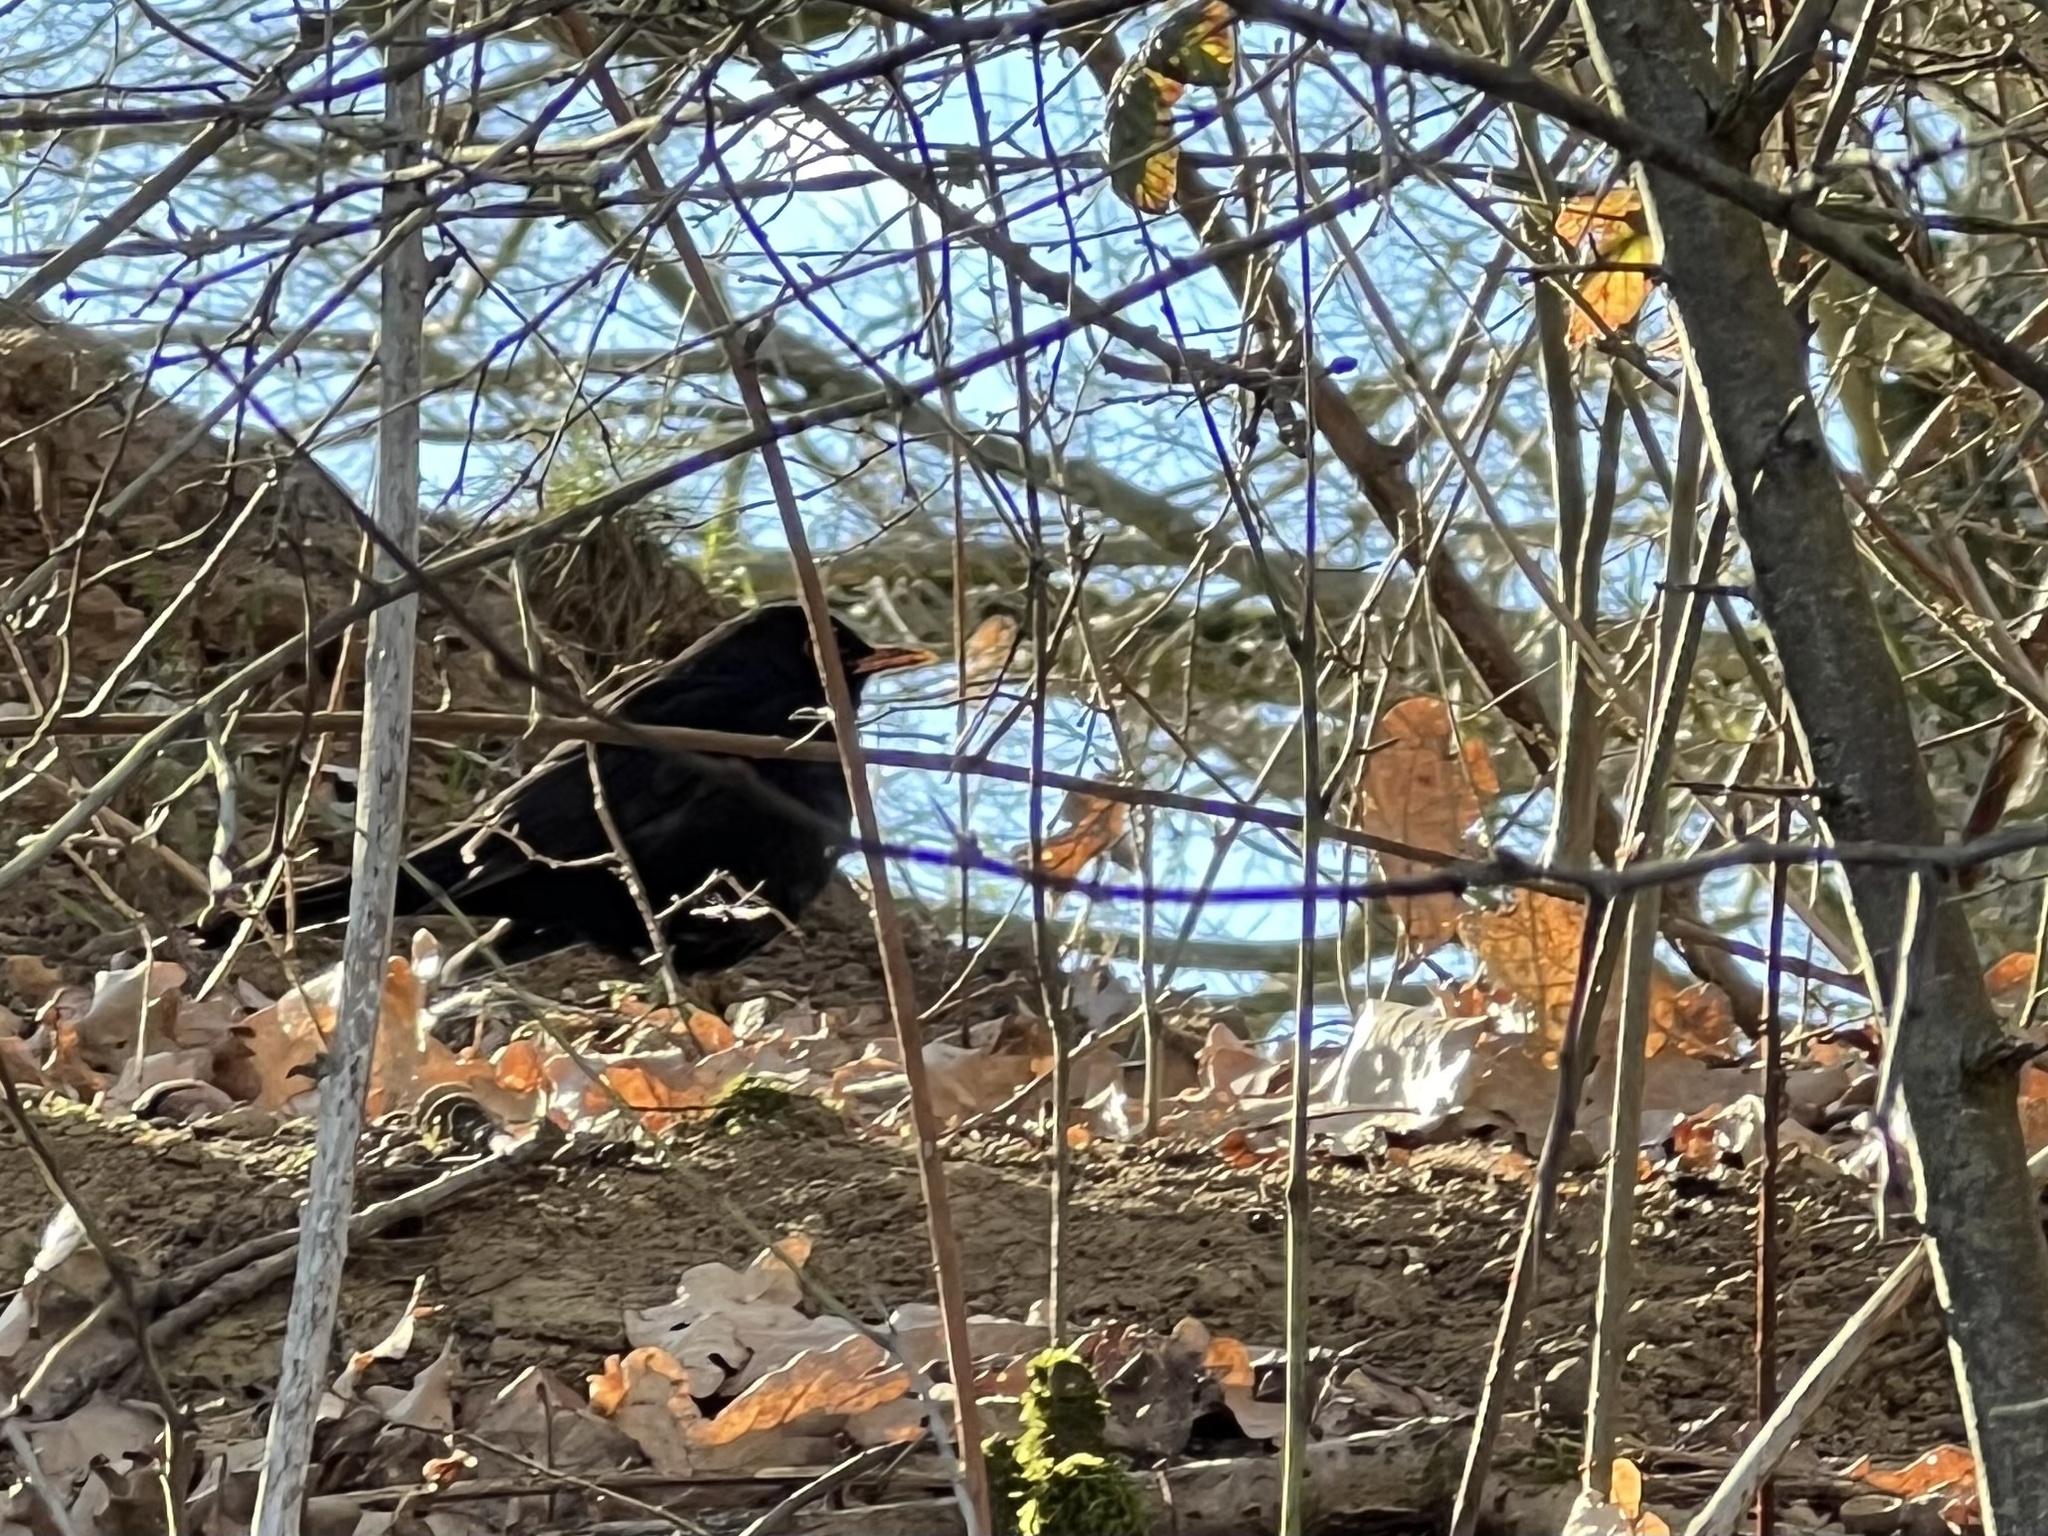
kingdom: Animalia
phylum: Chordata
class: Aves
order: Passeriformes
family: Turdidae
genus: Turdus
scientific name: Turdus merula
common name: Common blackbird
